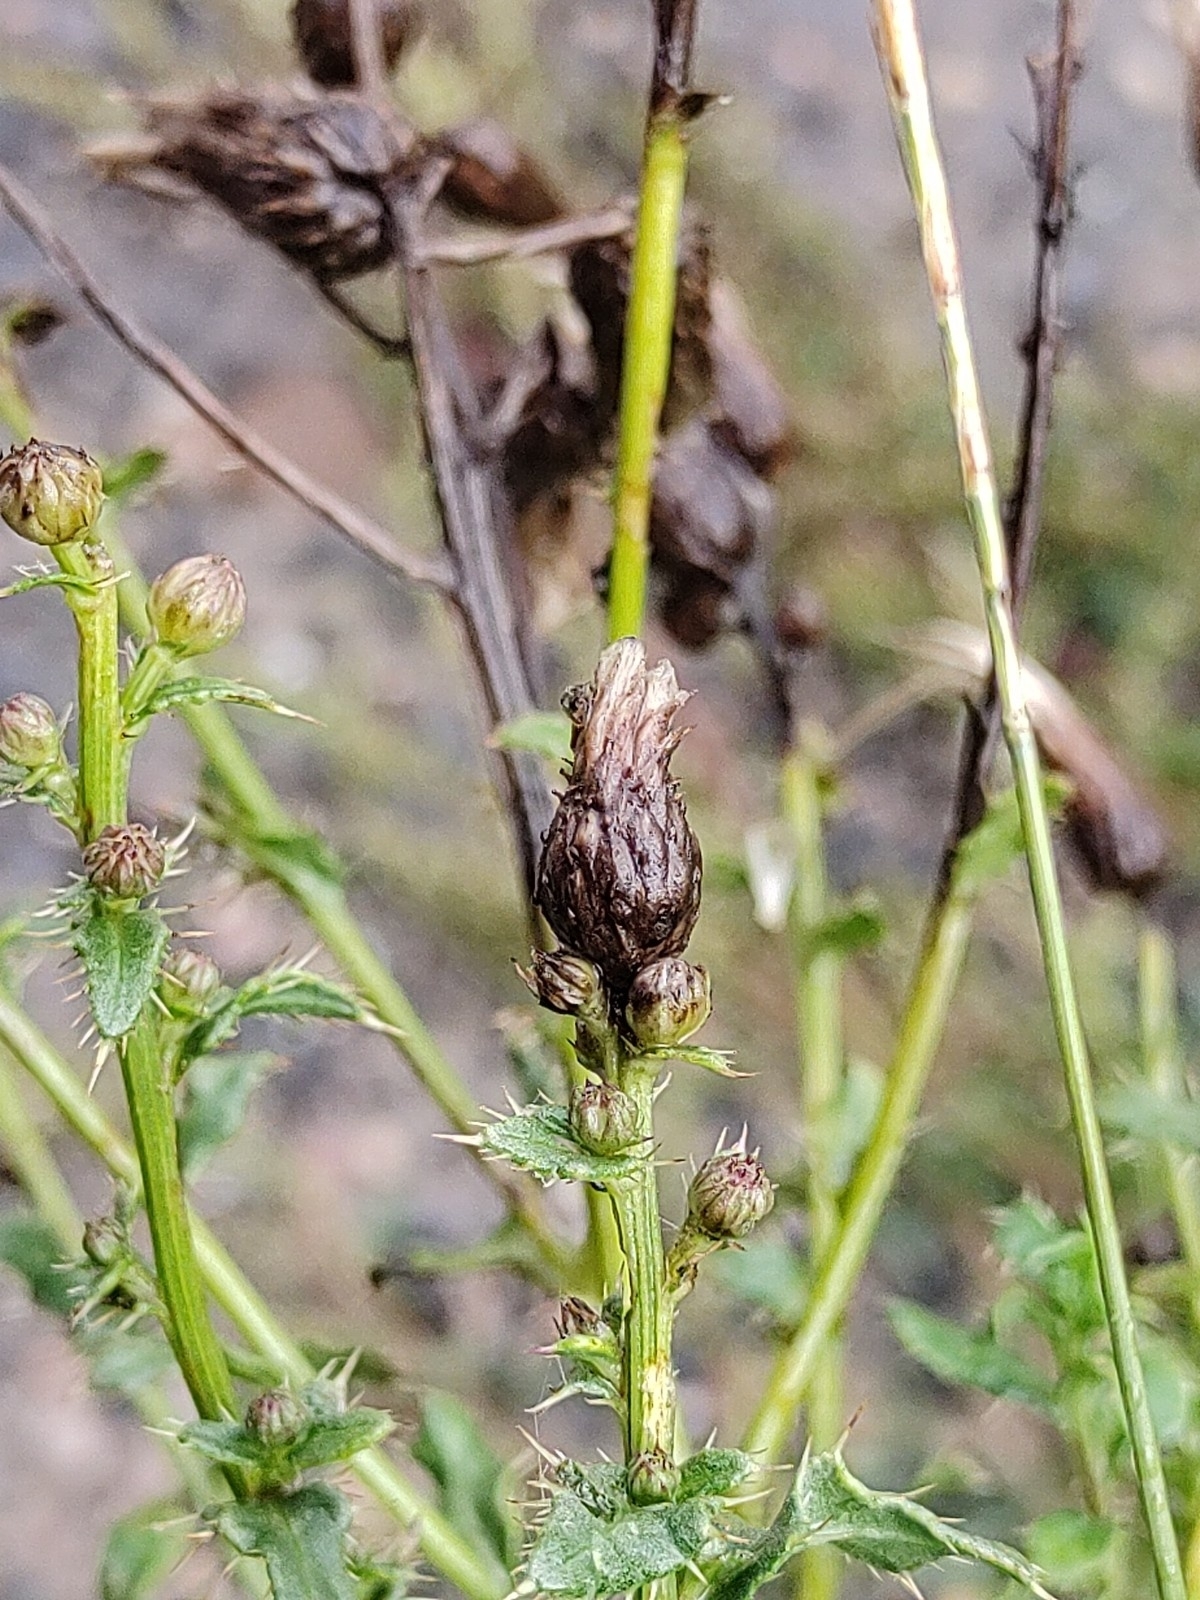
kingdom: Plantae
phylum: Tracheophyta
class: Magnoliopsida
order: Asterales
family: Asteraceae
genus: Cirsium
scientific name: Cirsium arvense
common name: Creeping thistle
